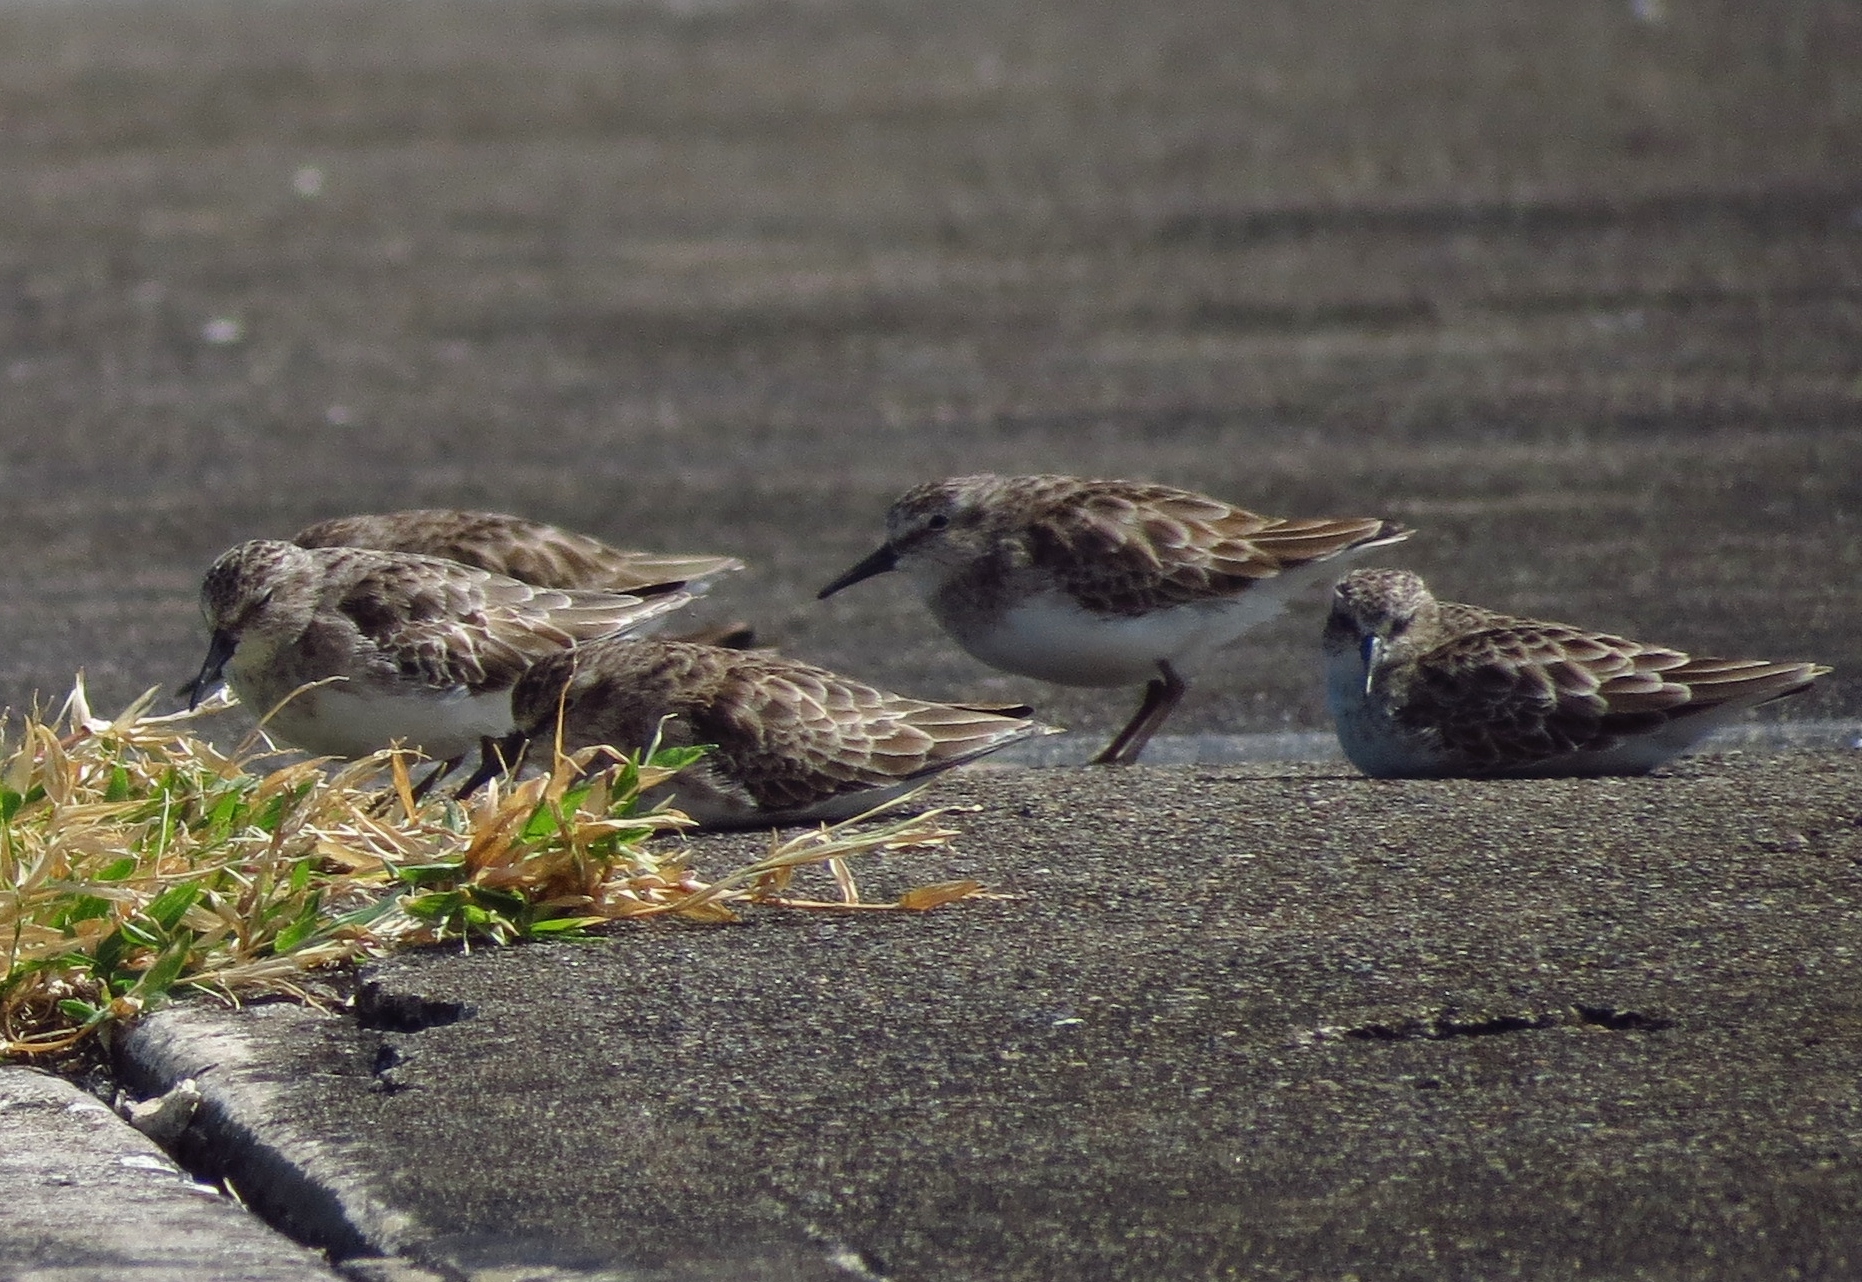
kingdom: Animalia
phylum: Chordata
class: Aves
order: Charadriiformes
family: Scolopacidae
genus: Calidris
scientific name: Calidris minutilla
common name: Least sandpiper
